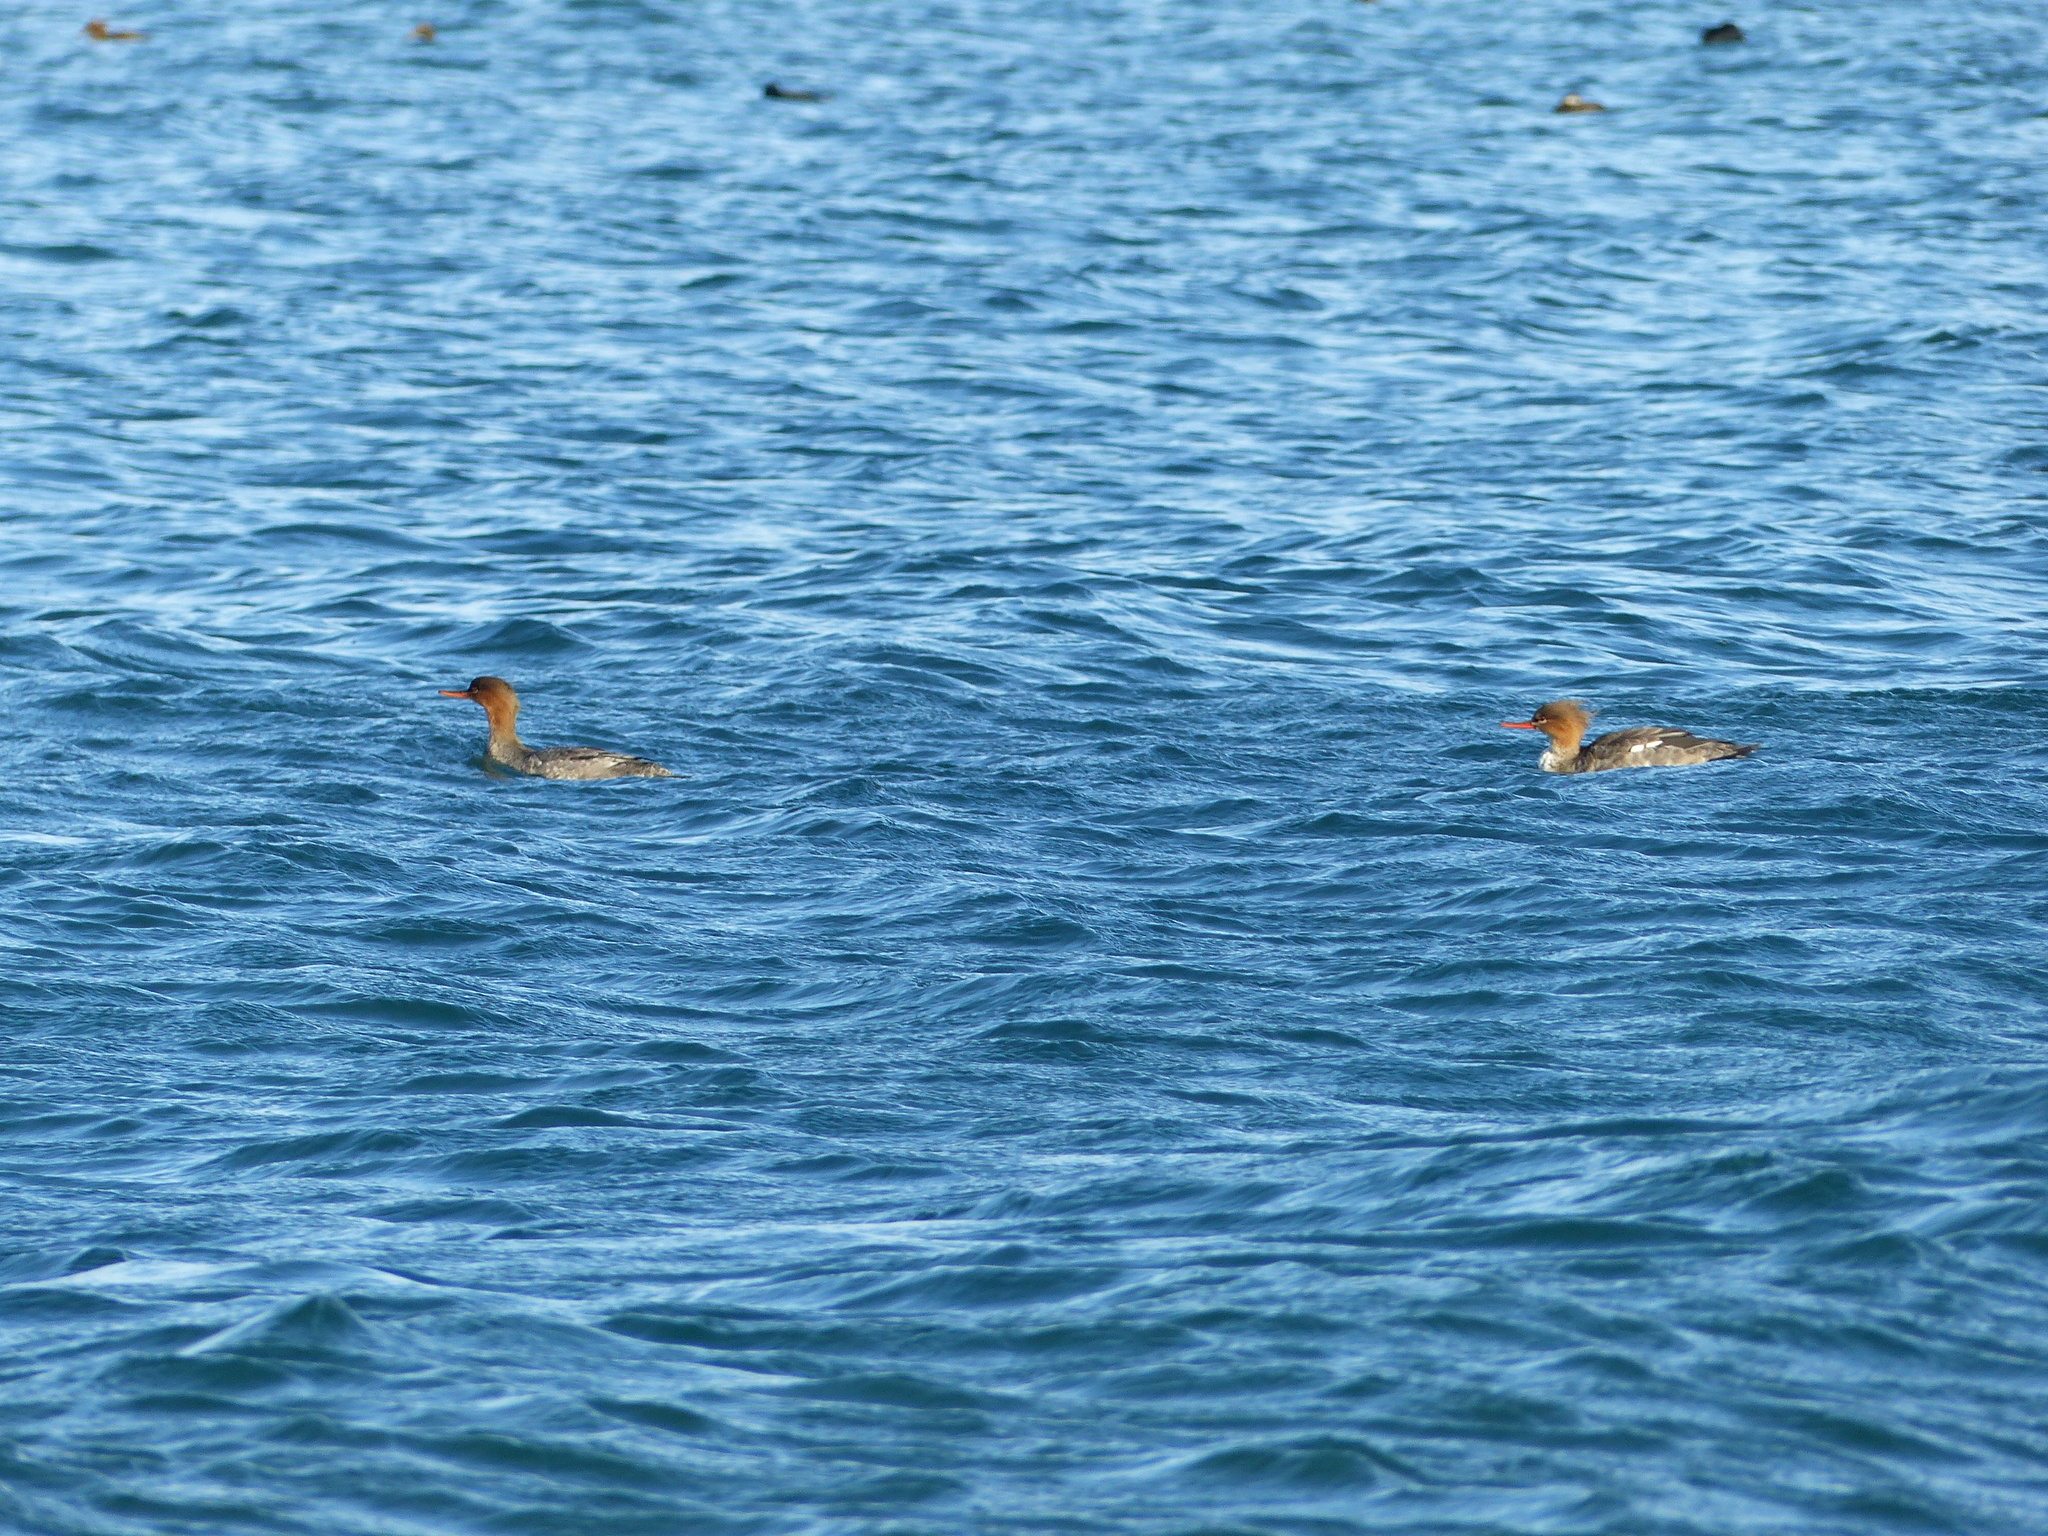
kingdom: Animalia
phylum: Chordata
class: Aves
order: Anseriformes
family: Anatidae
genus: Mergus
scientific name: Mergus serrator
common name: Red-breasted merganser
